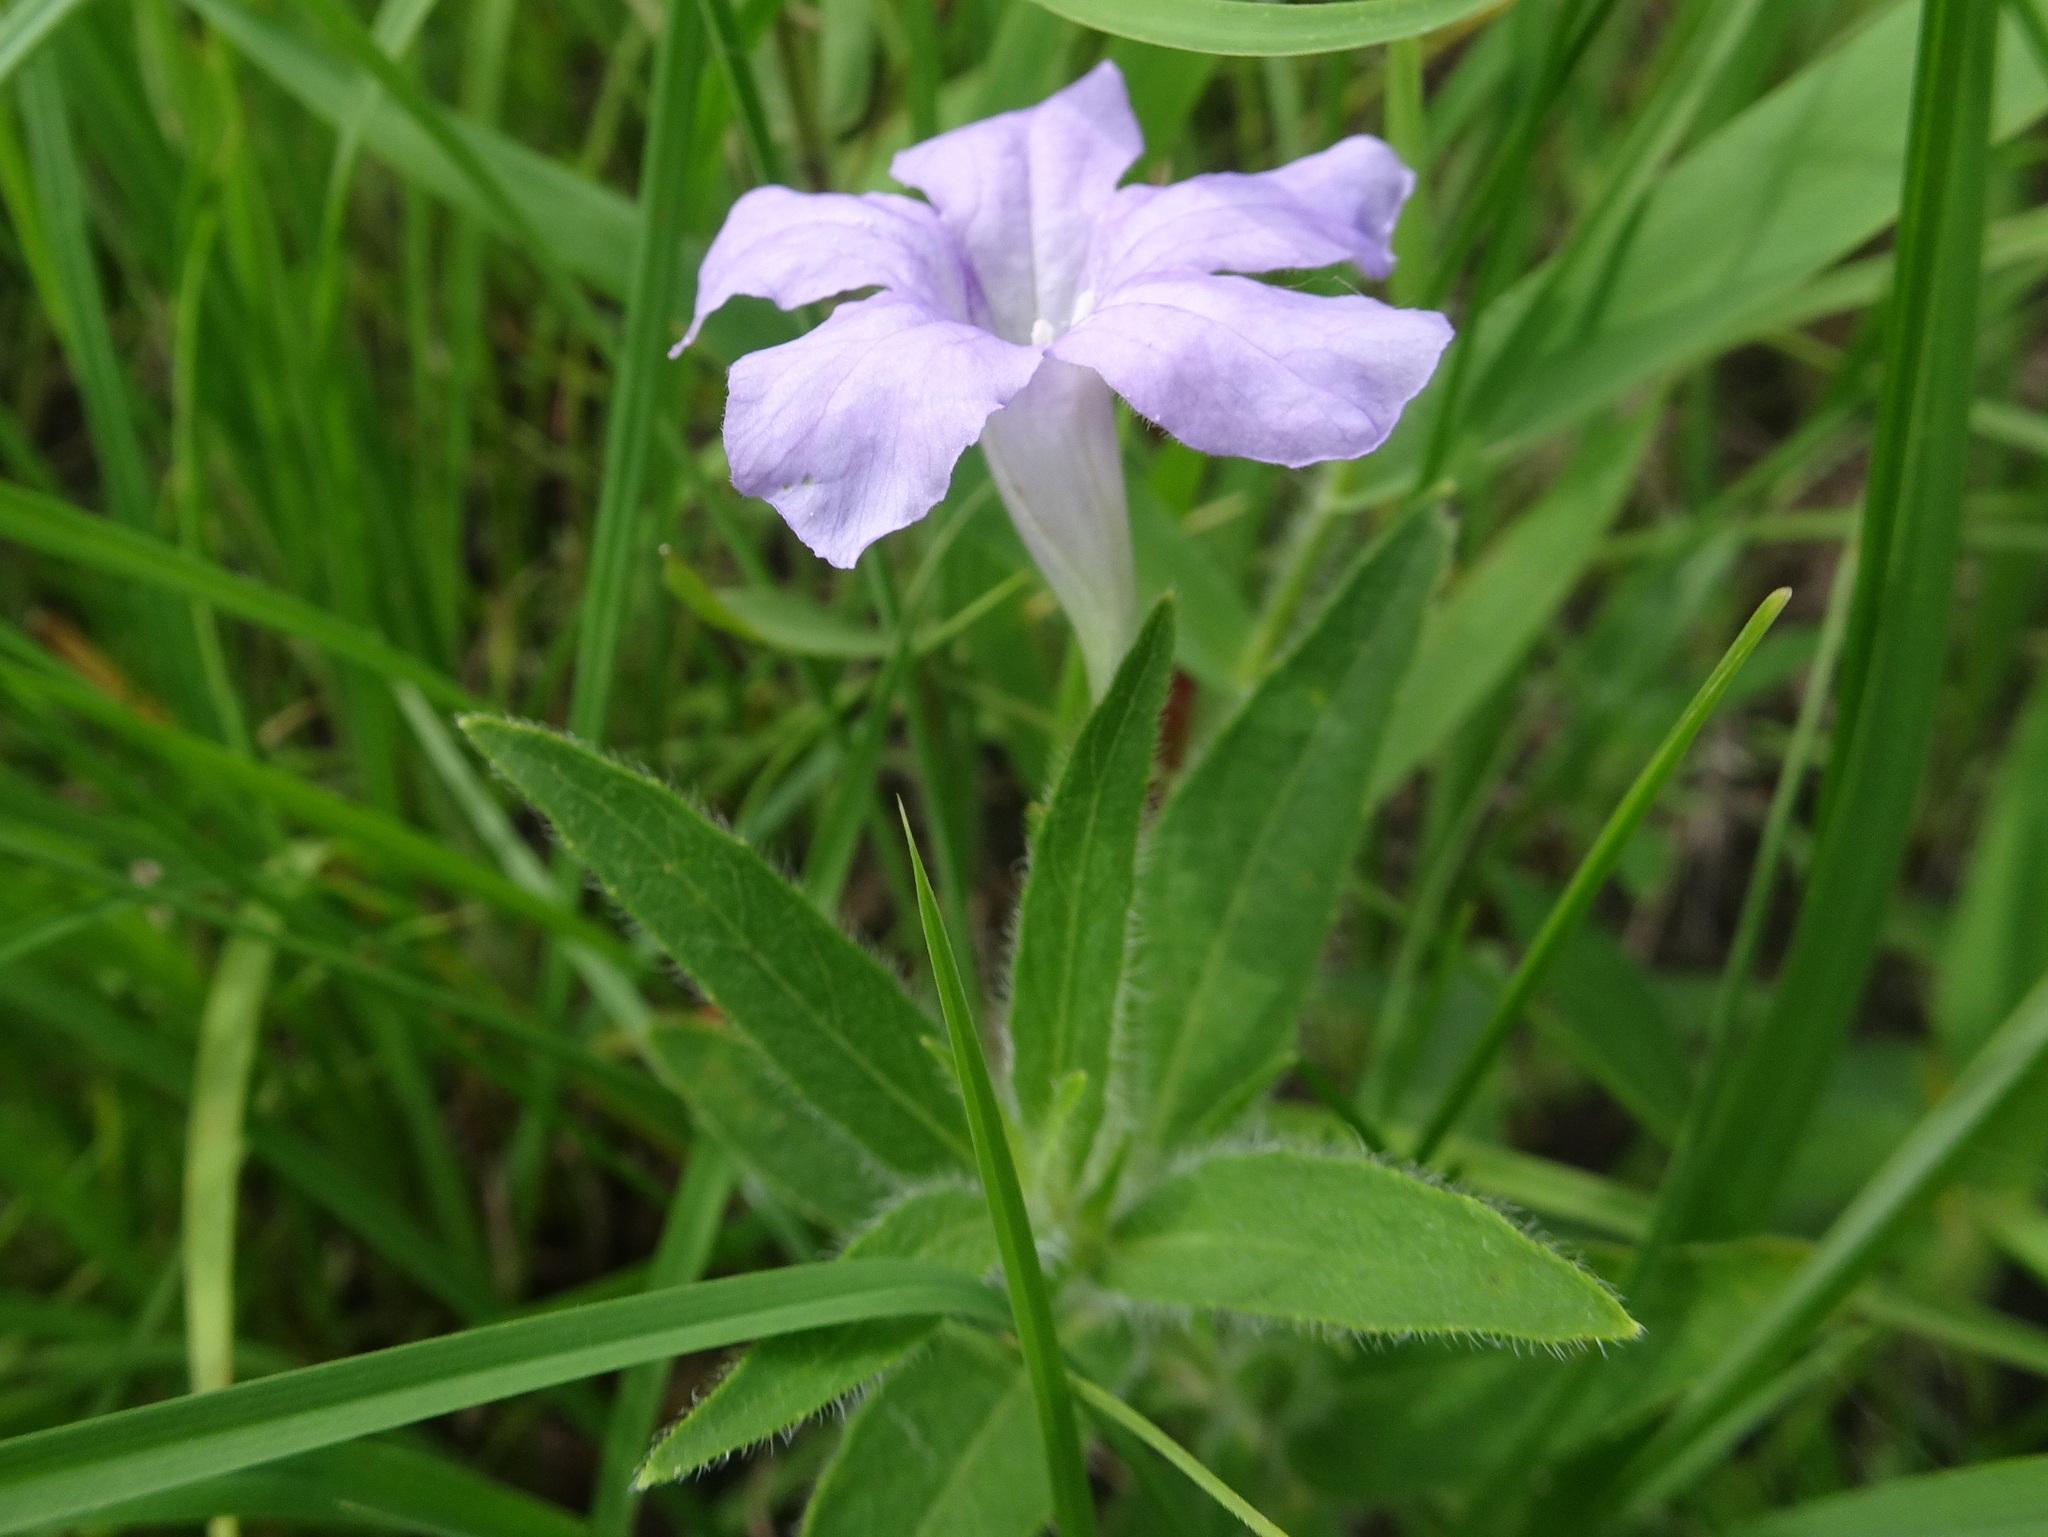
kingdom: Plantae
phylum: Tracheophyta
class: Magnoliopsida
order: Lamiales
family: Acanthaceae
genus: Ruellia
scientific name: Ruellia humilis
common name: Fringe-leaf ruellia
